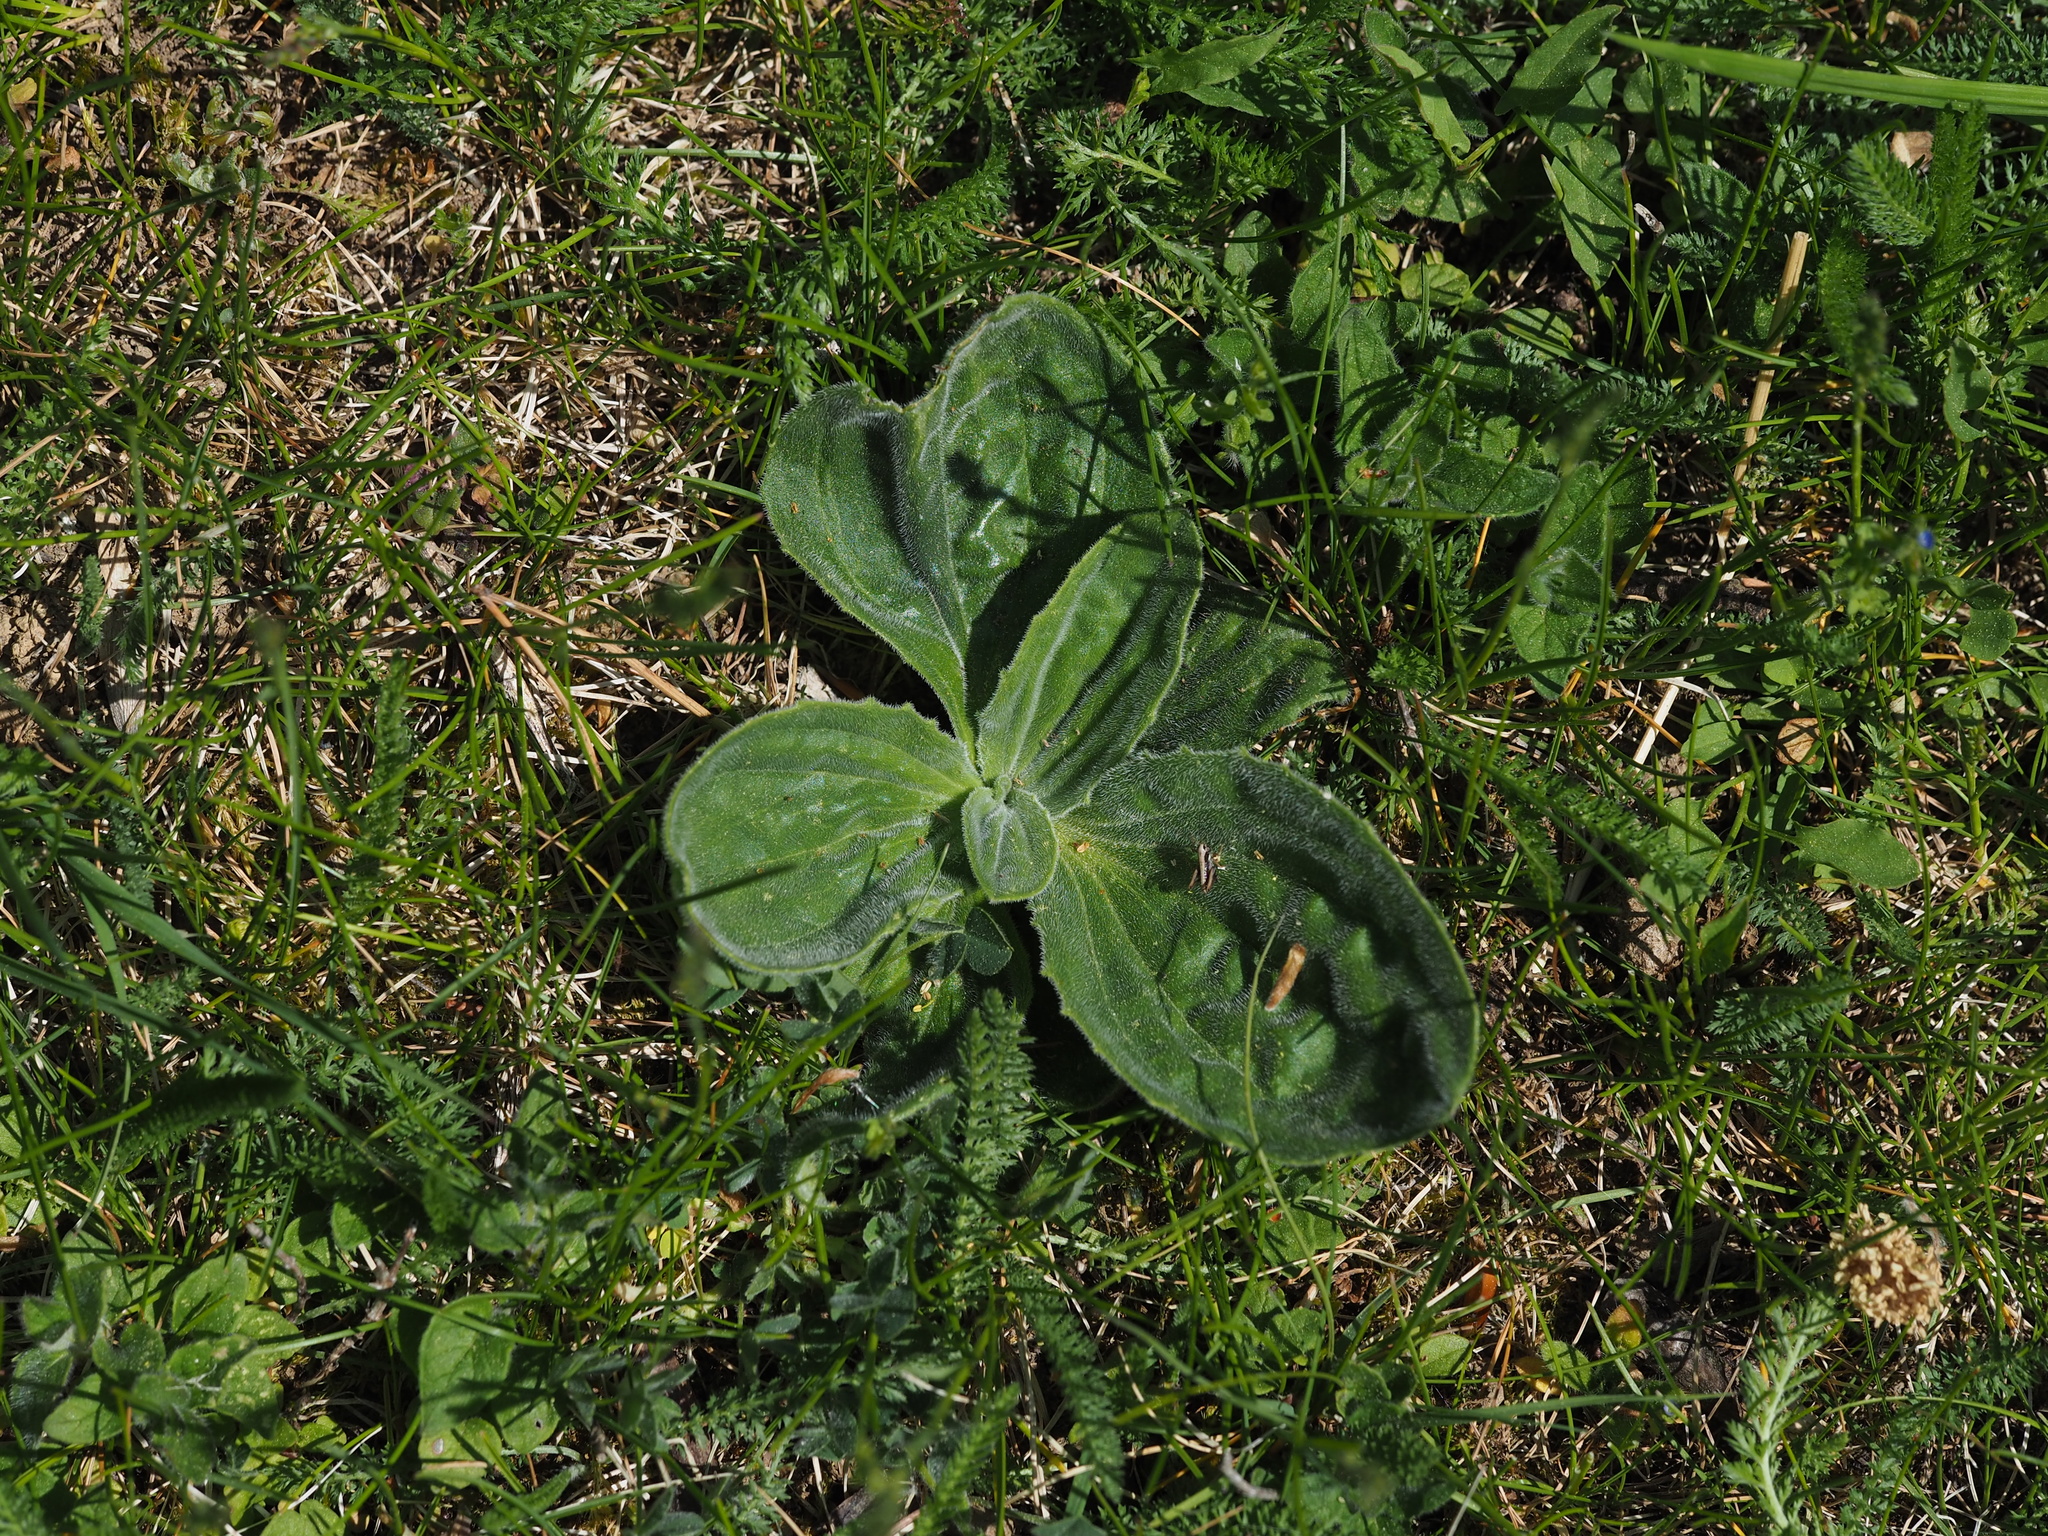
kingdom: Plantae
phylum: Tracheophyta
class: Magnoliopsida
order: Lamiales
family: Plantaginaceae
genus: Plantago
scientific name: Plantago media
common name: Hoary plantain
